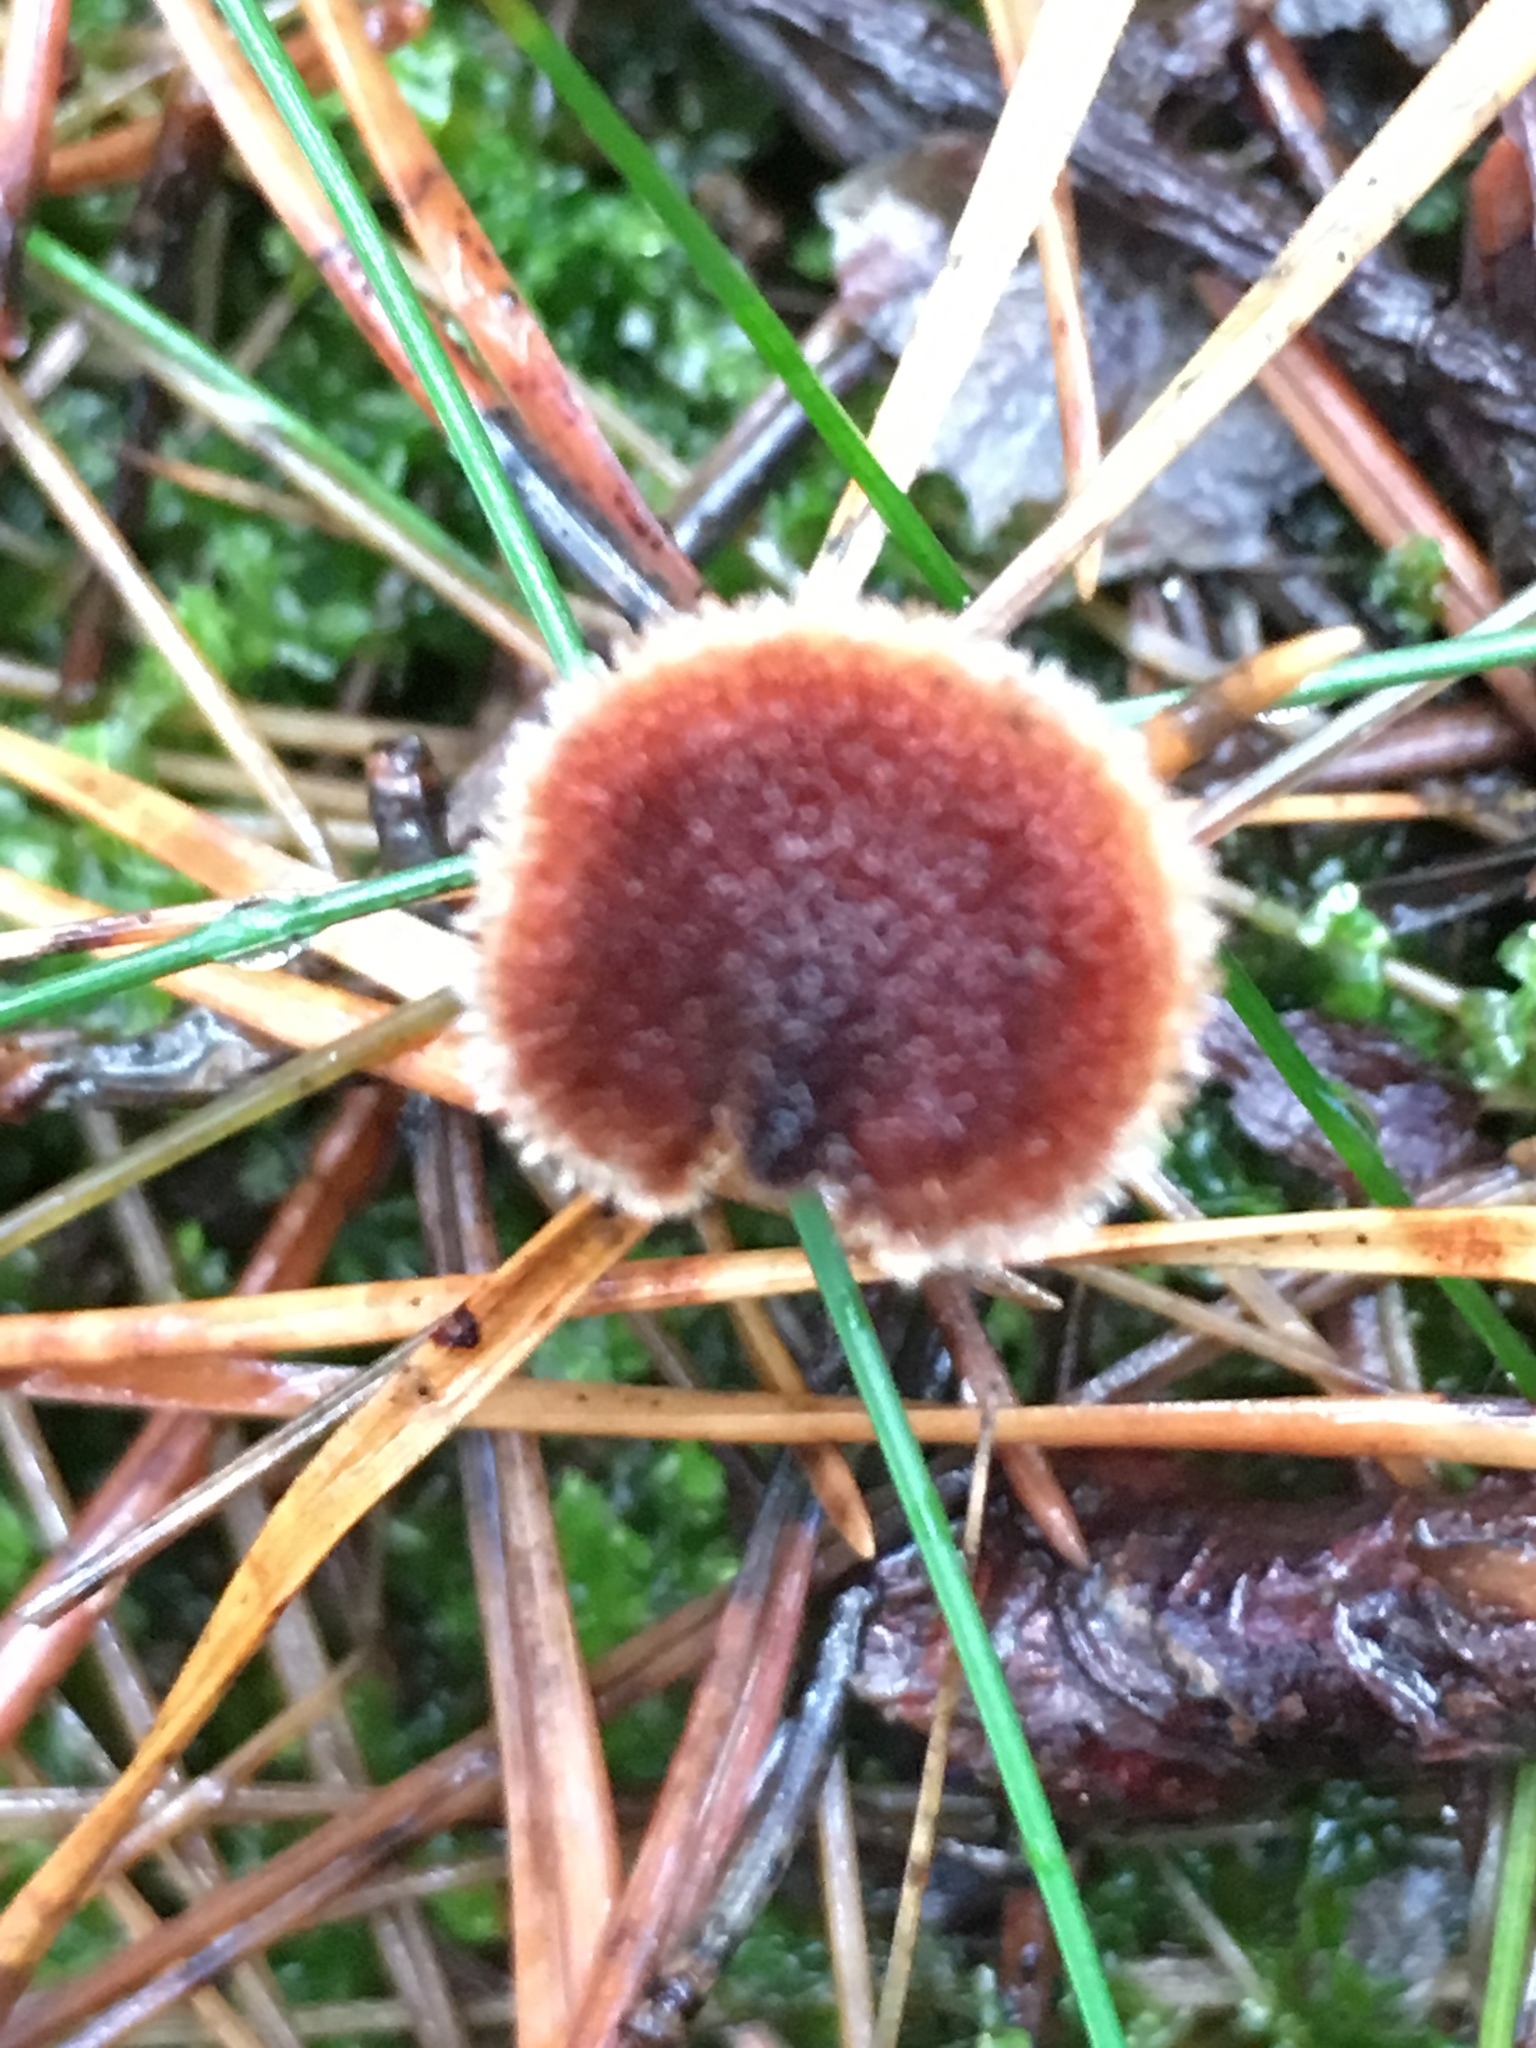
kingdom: Fungi
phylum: Basidiomycota
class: Agaricomycetes
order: Russulales
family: Auriscalpiaceae
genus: Auriscalpium
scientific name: Auriscalpium vulgare
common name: Earpick fungus
